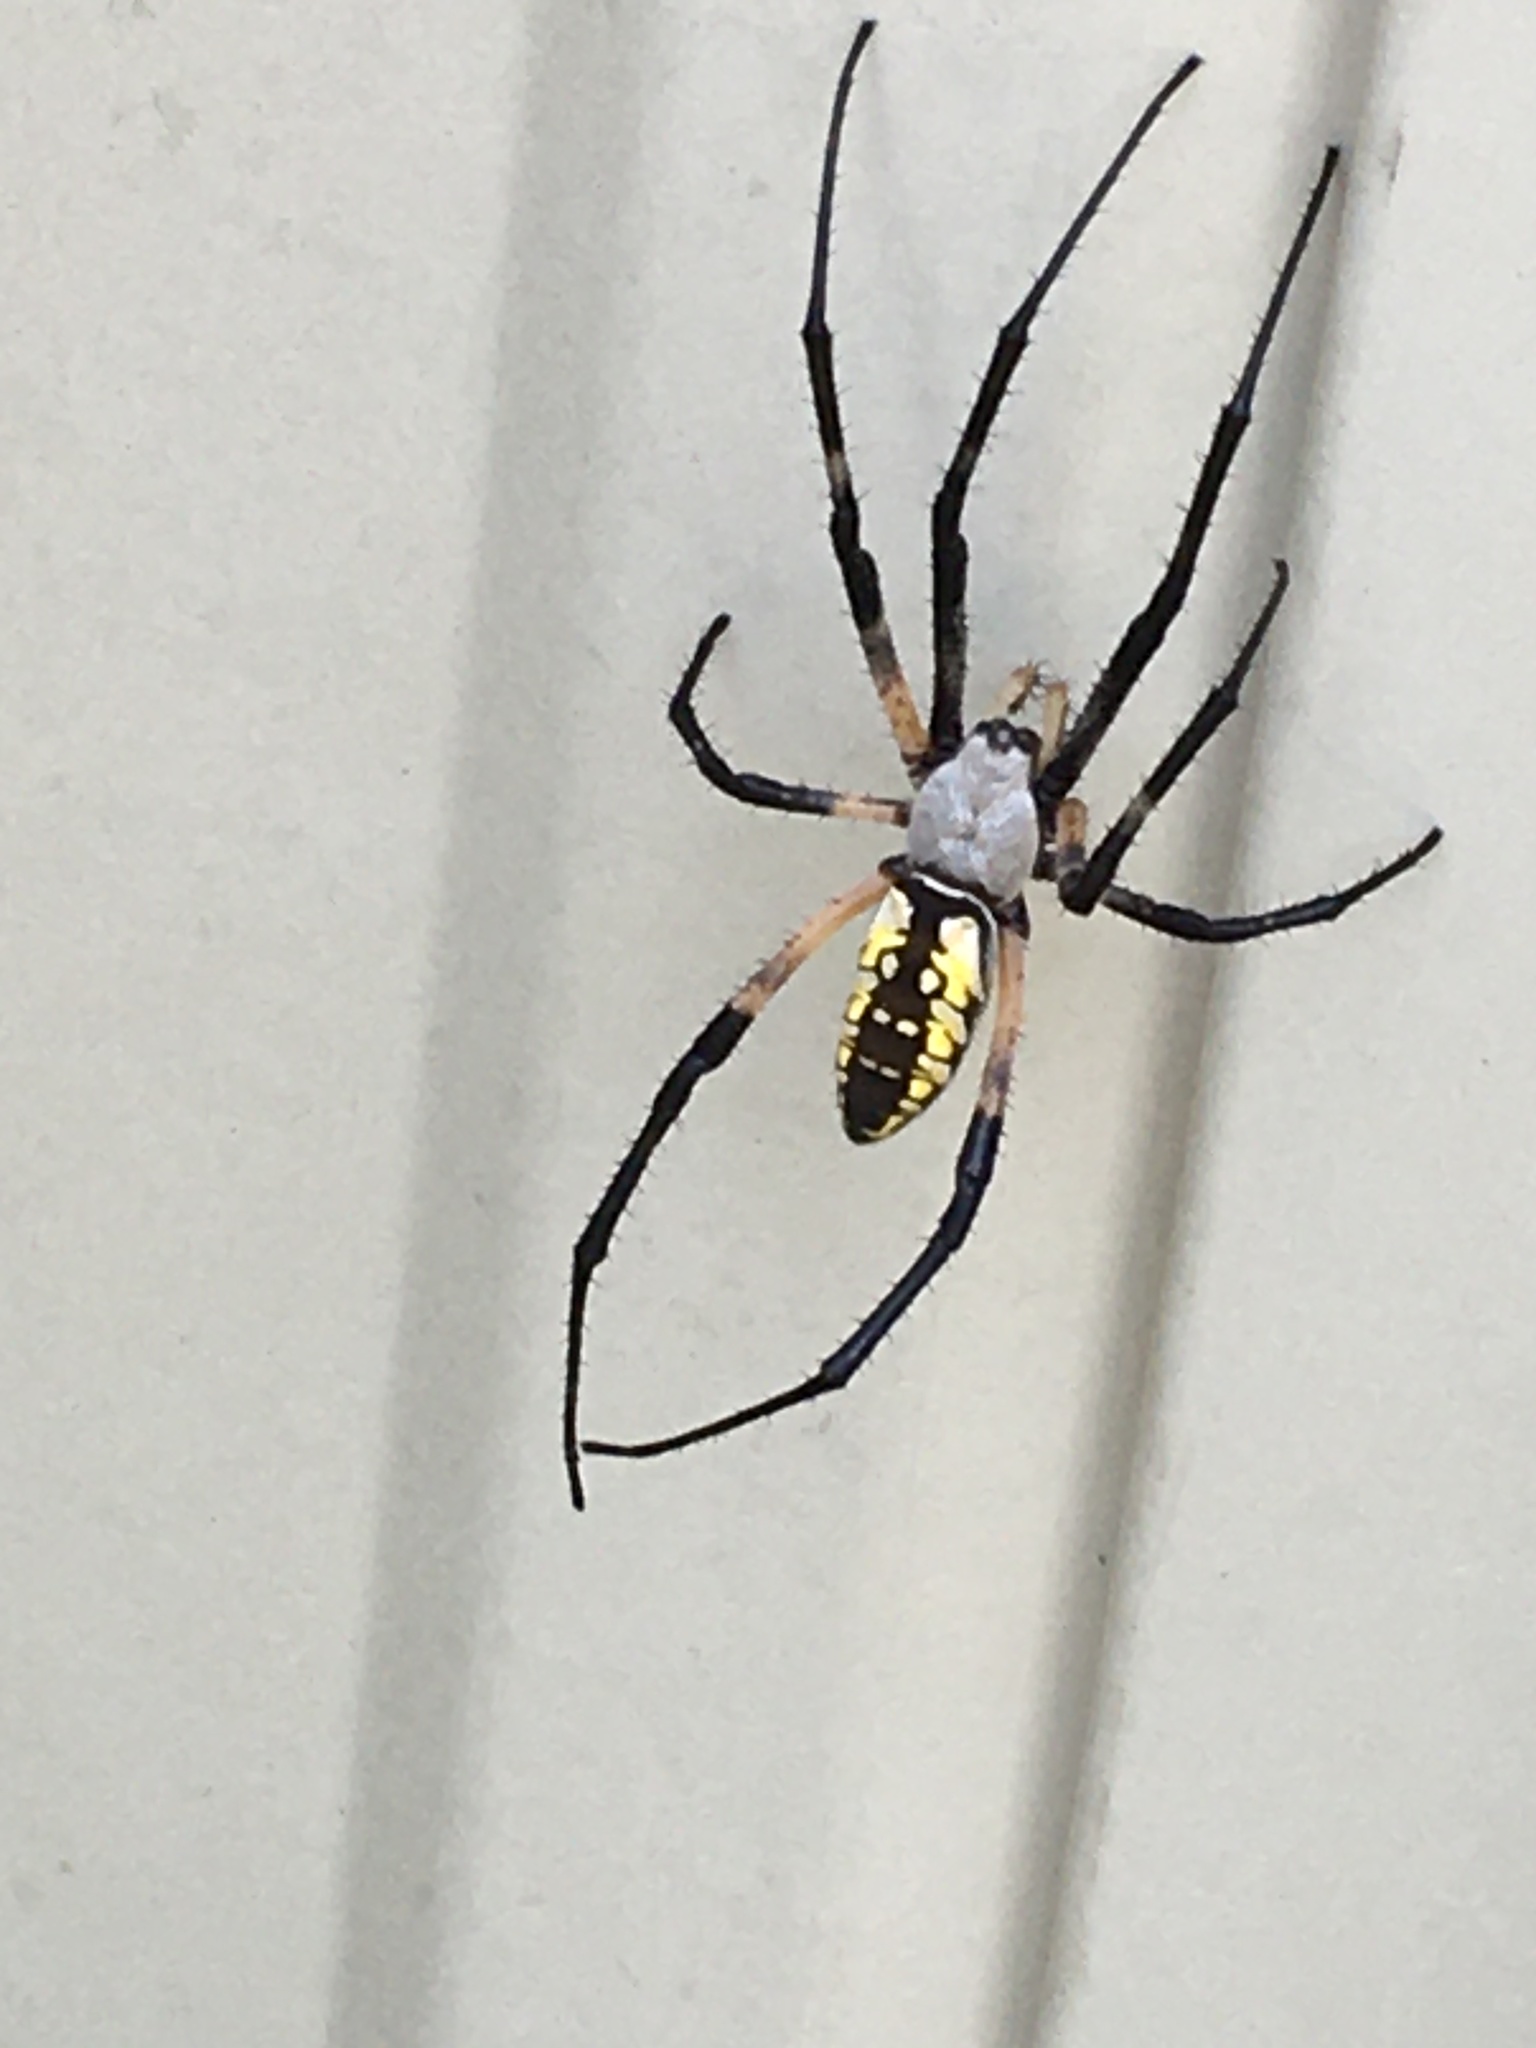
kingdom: Animalia
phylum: Arthropoda
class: Arachnida
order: Araneae
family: Araneidae
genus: Argiope
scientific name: Argiope aurantia
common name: Orb weavers
